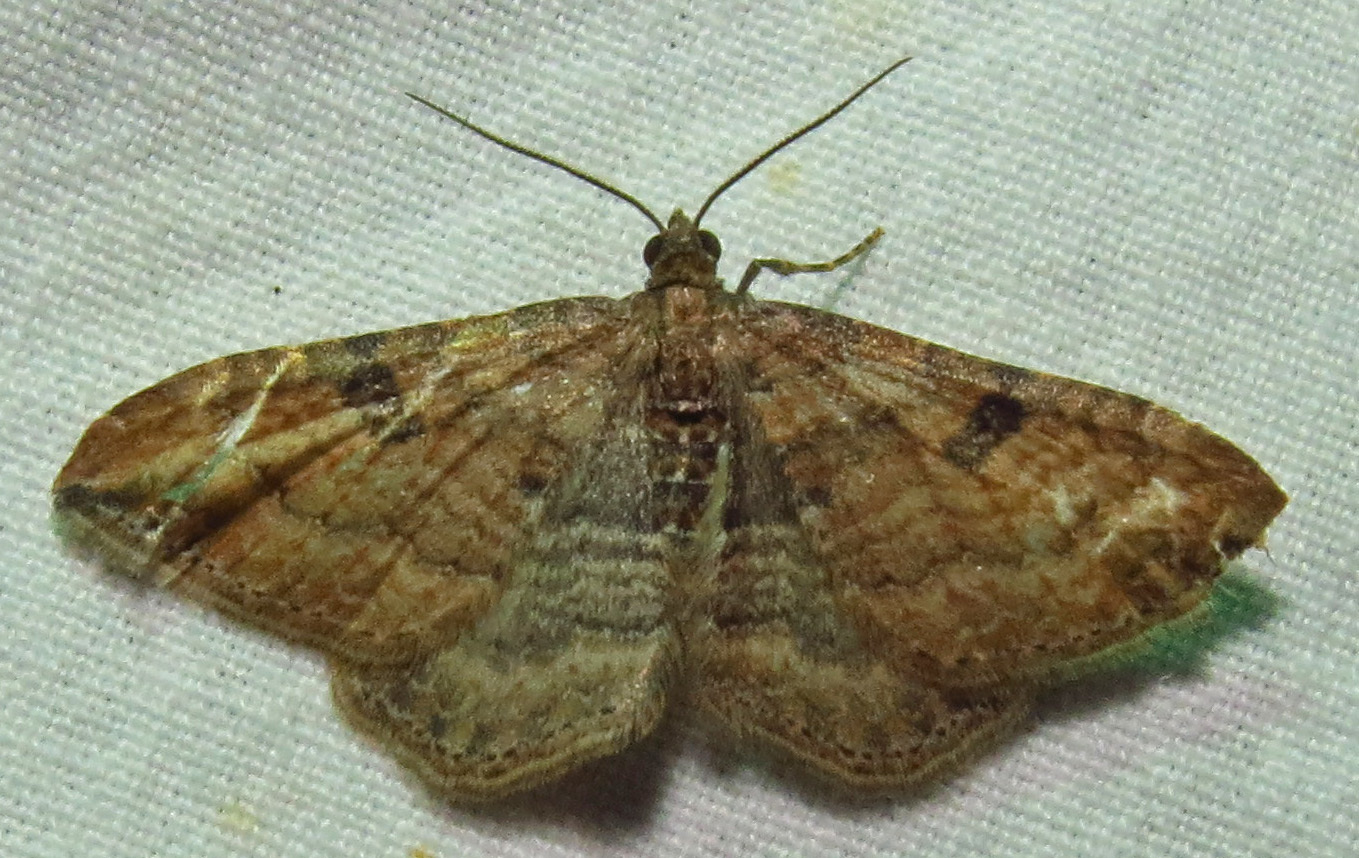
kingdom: Animalia
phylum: Arthropoda
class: Insecta
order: Lepidoptera
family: Geometridae
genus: Orthonama
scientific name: Orthonama obstipata
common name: The gem
